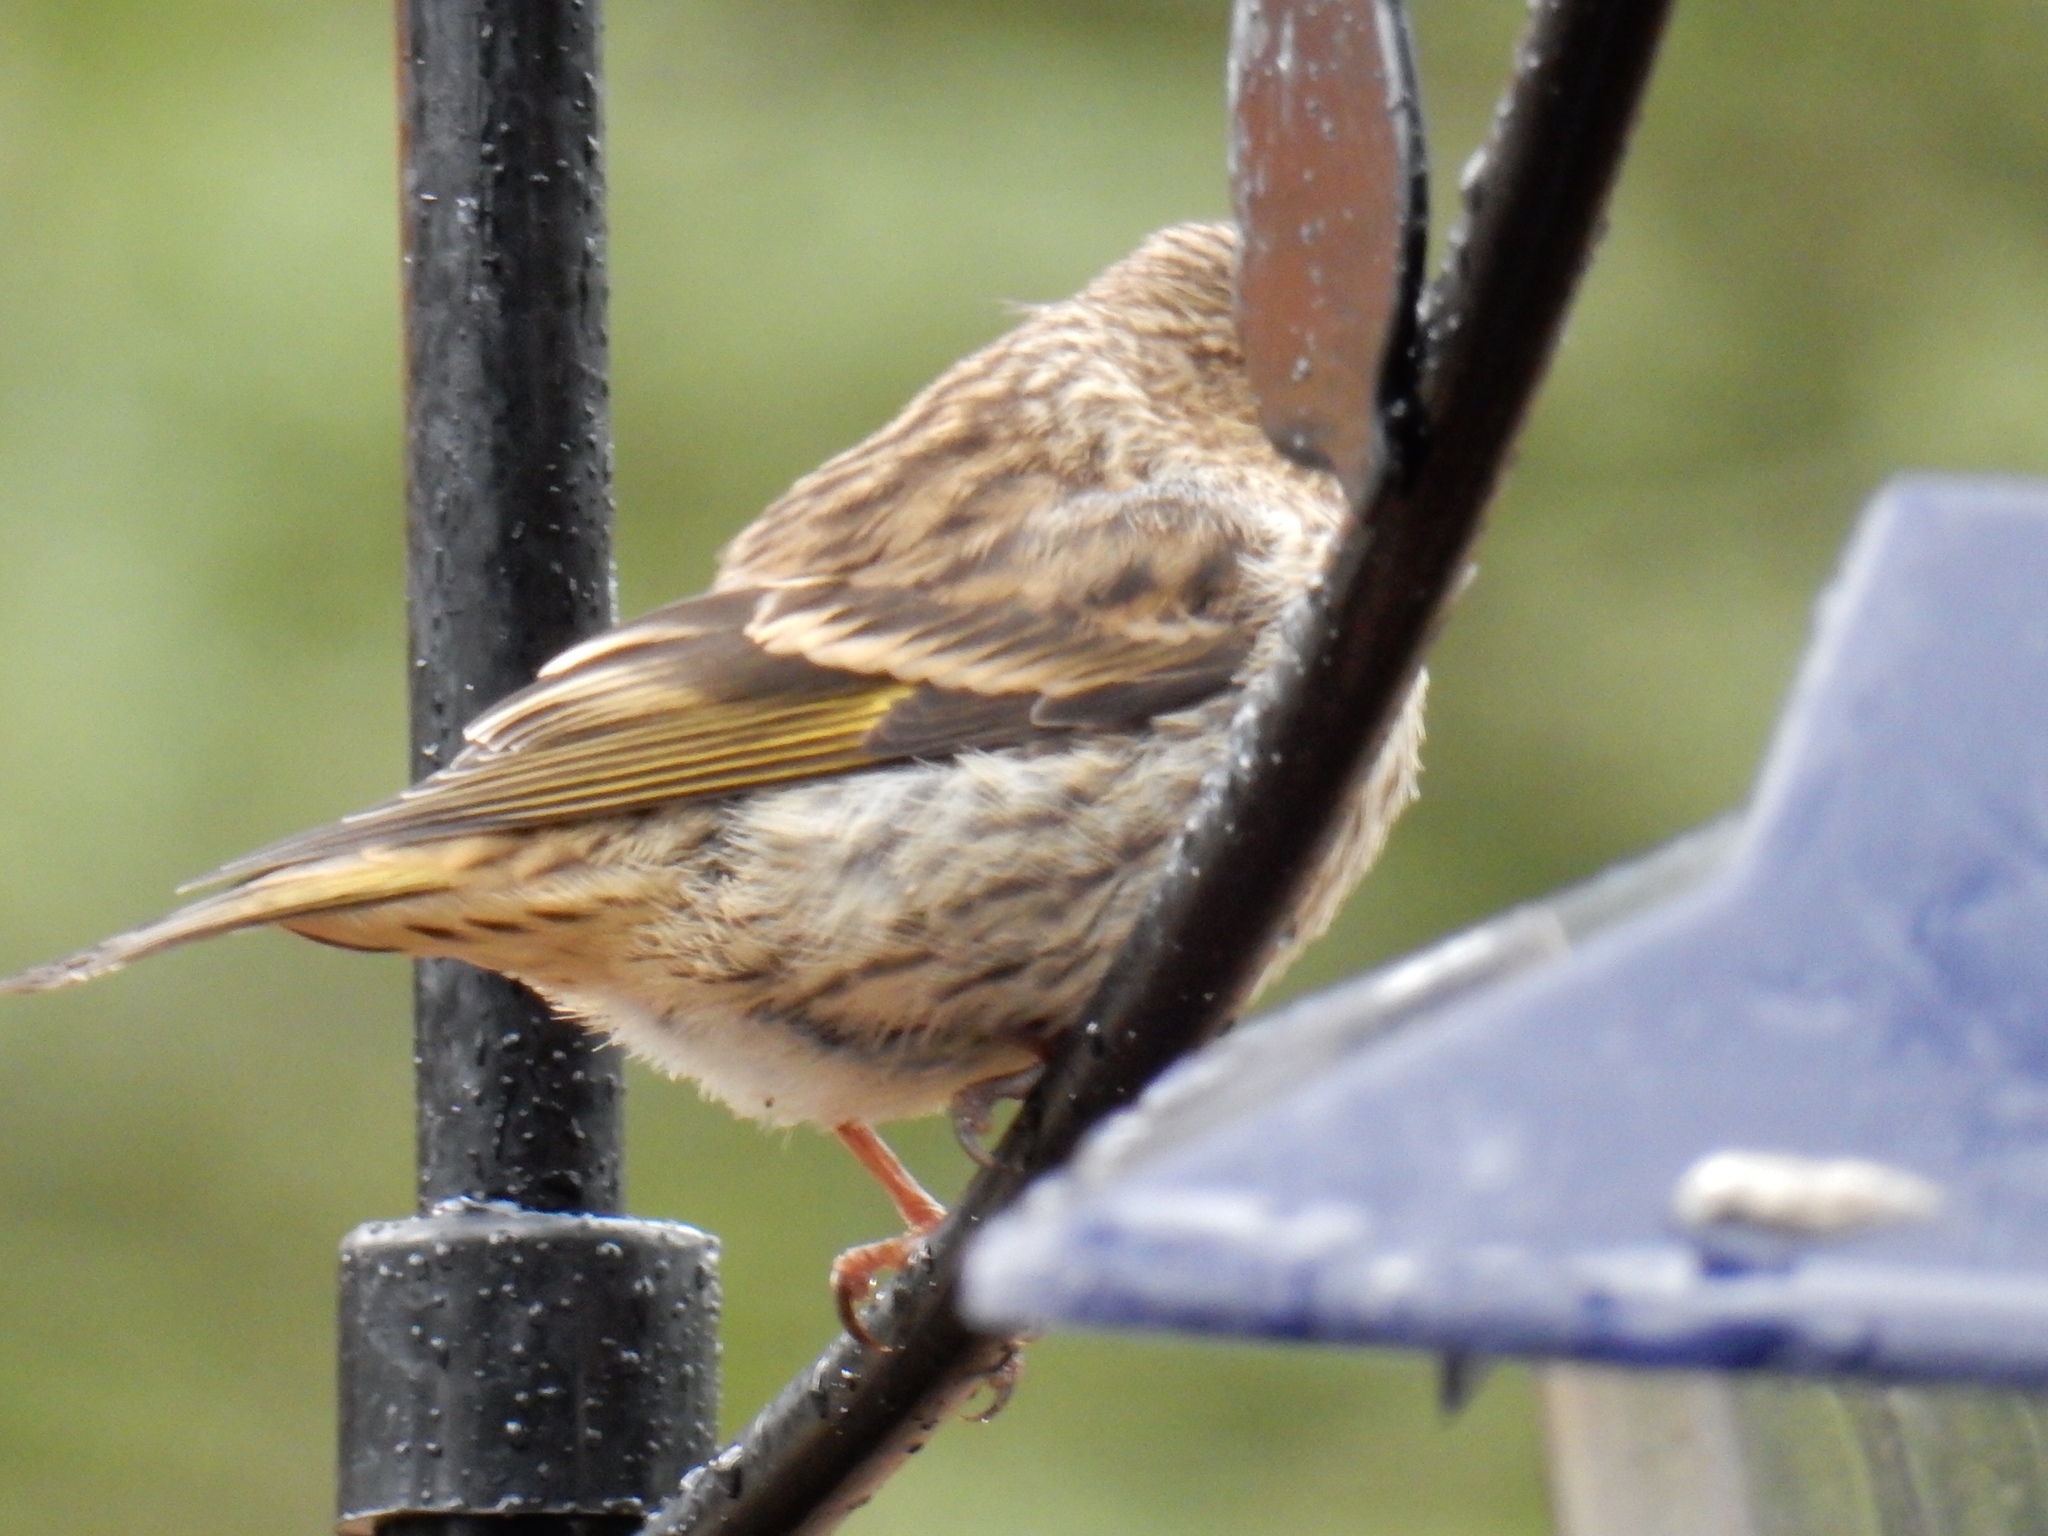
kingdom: Animalia
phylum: Chordata
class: Aves
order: Passeriformes
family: Fringillidae
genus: Spinus
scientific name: Spinus pinus
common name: Pine siskin
